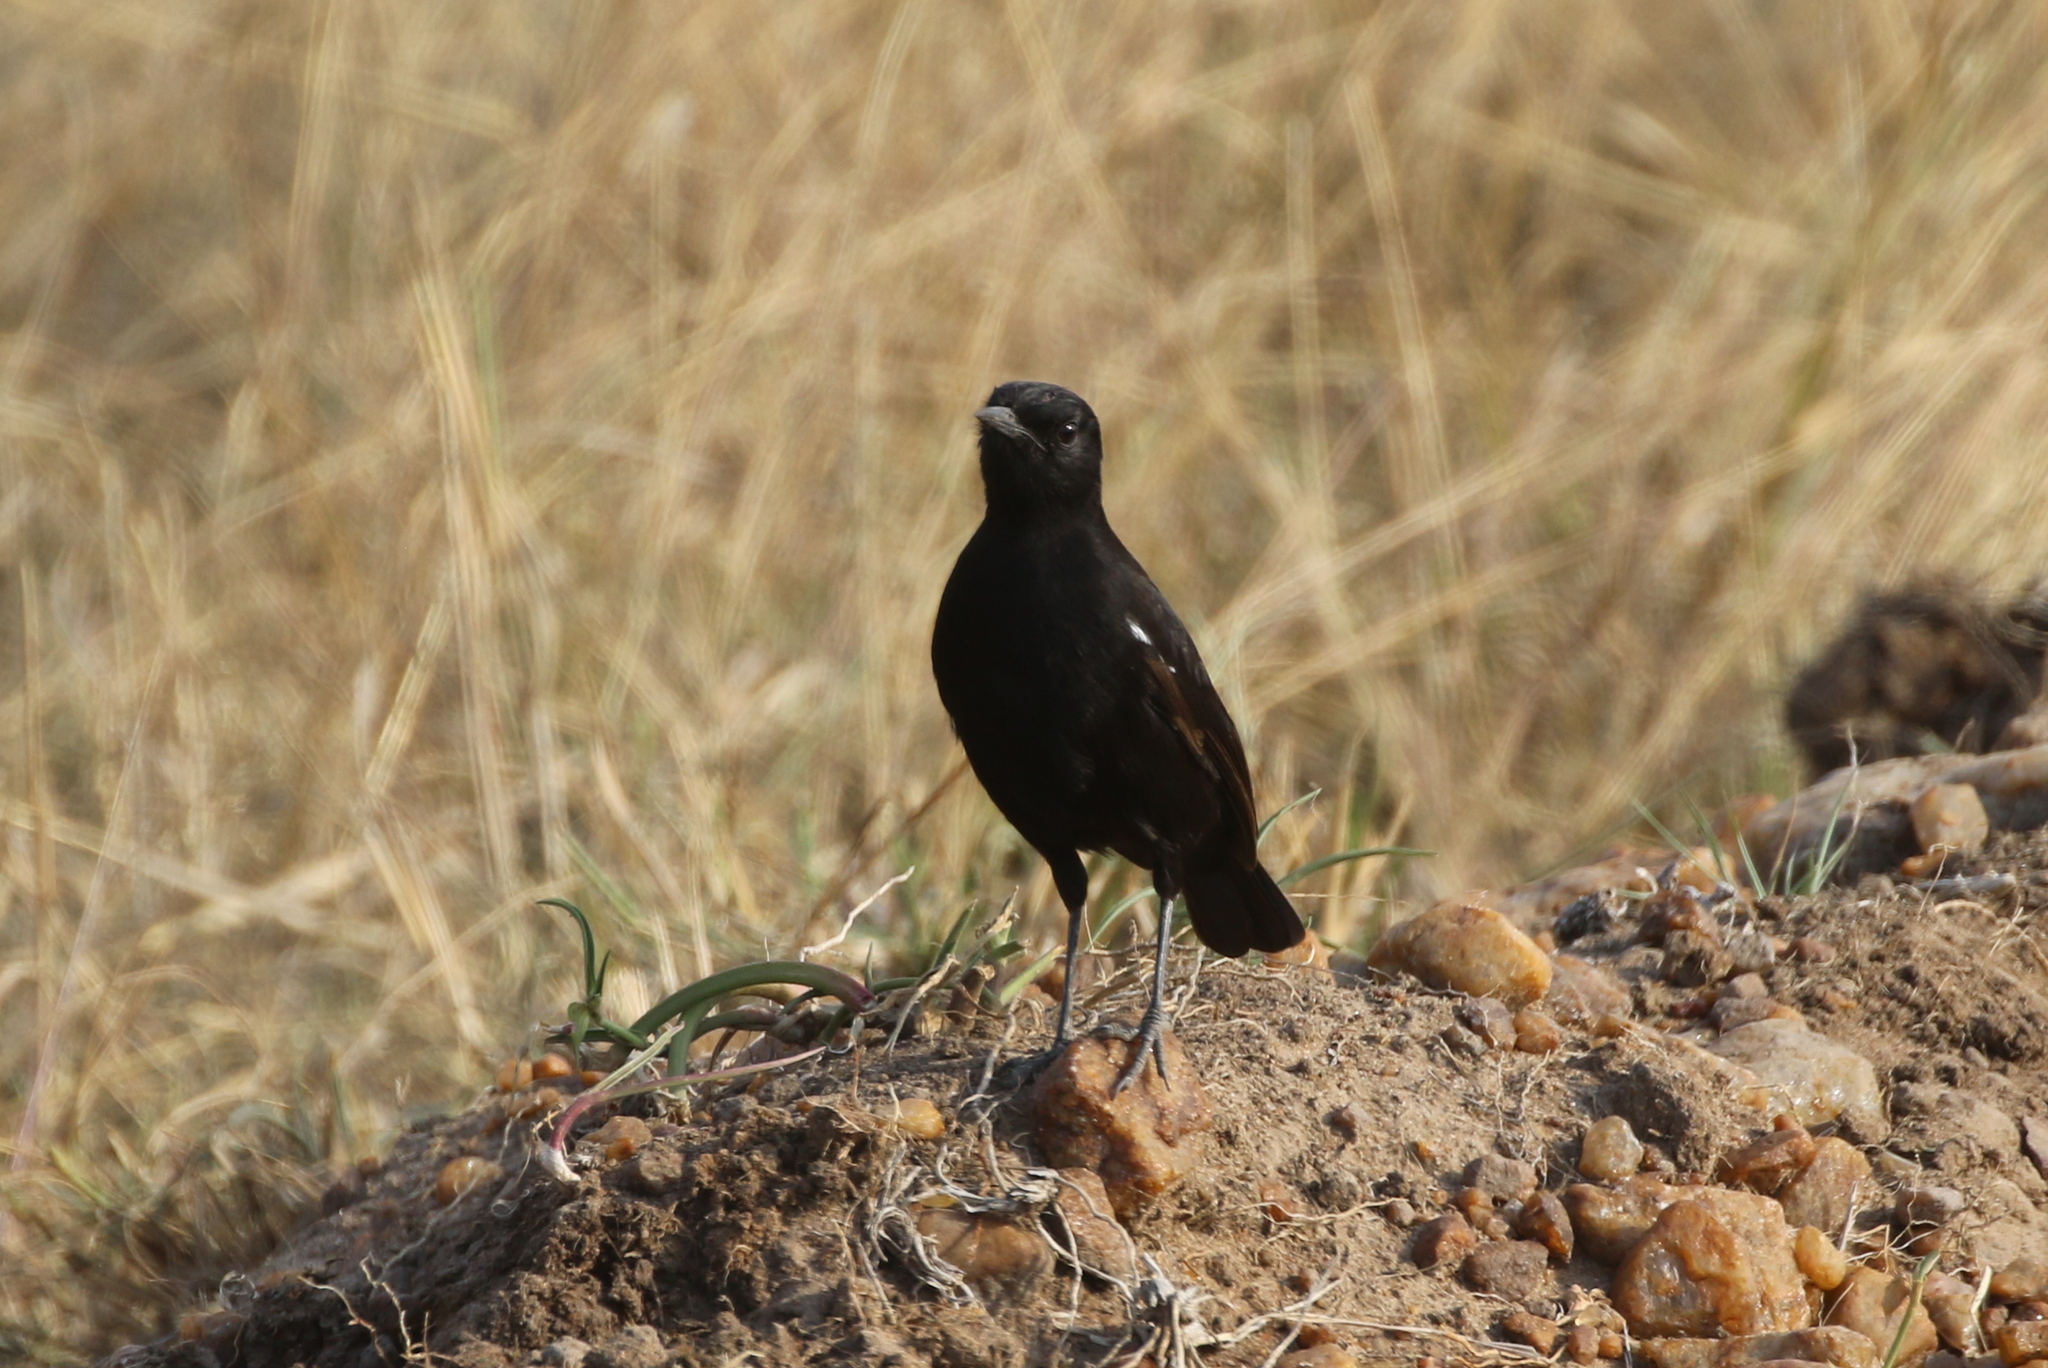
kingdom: Animalia
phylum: Chordata
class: Aves
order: Passeriformes
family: Muscicapidae
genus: Myrmecocichla
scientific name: Myrmecocichla nigra
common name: Sooty chat
